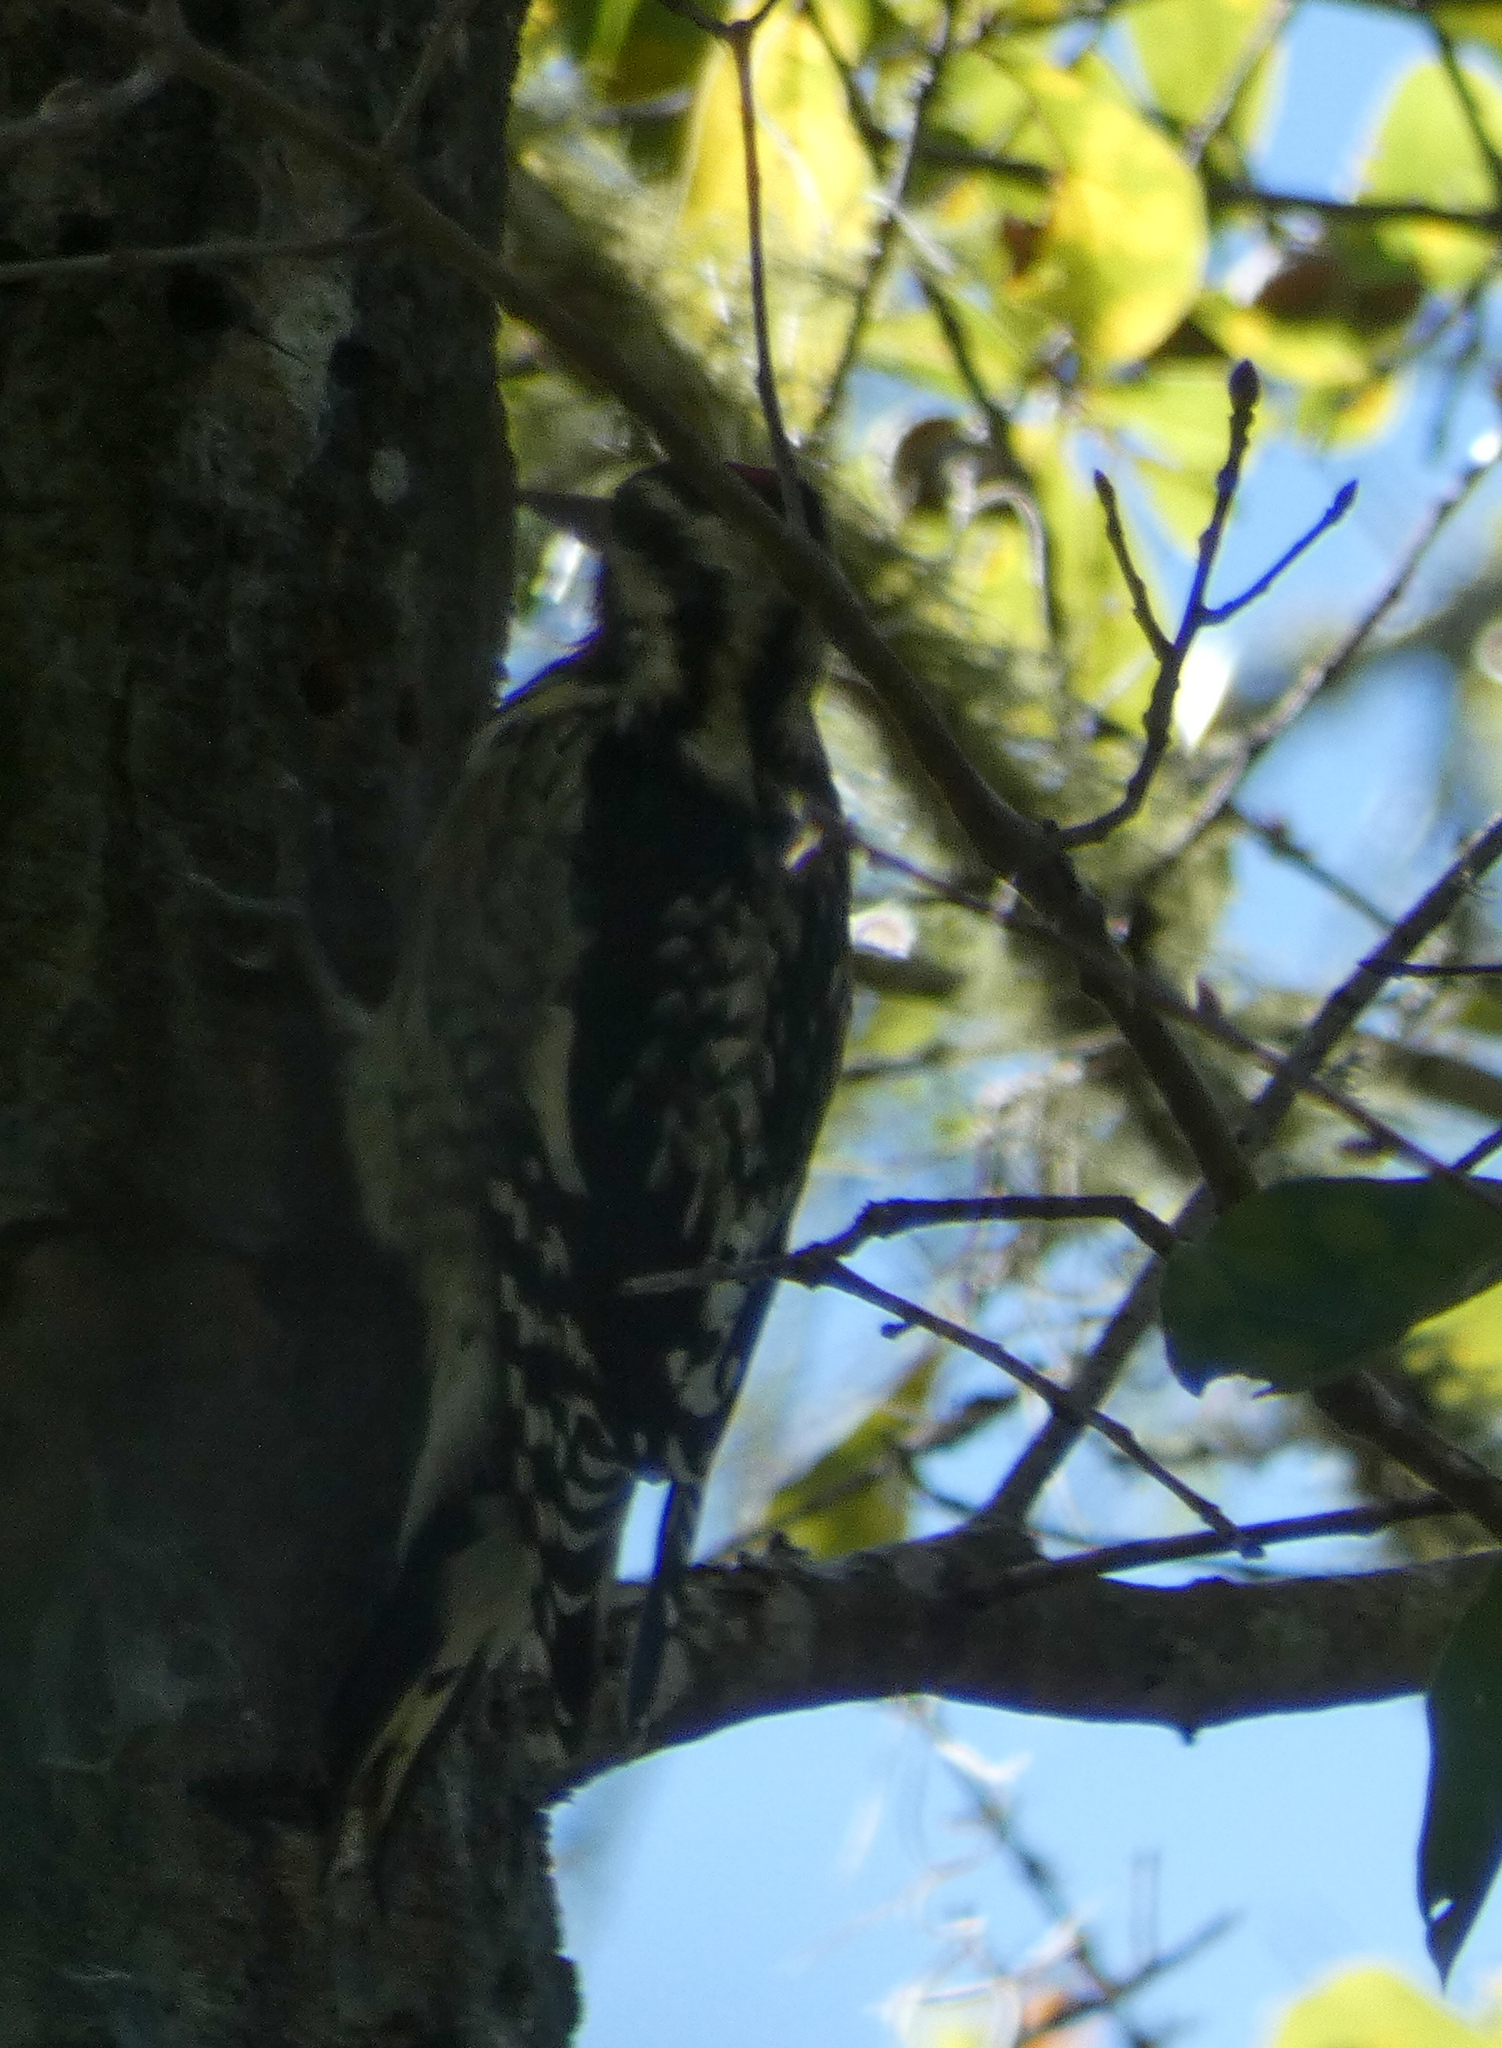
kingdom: Animalia
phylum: Chordata
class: Aves
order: Piciformes
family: Picidae
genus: Sphyrapicus
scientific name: Sphyrapicus varius
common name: Yellow-bellied sapsucker
